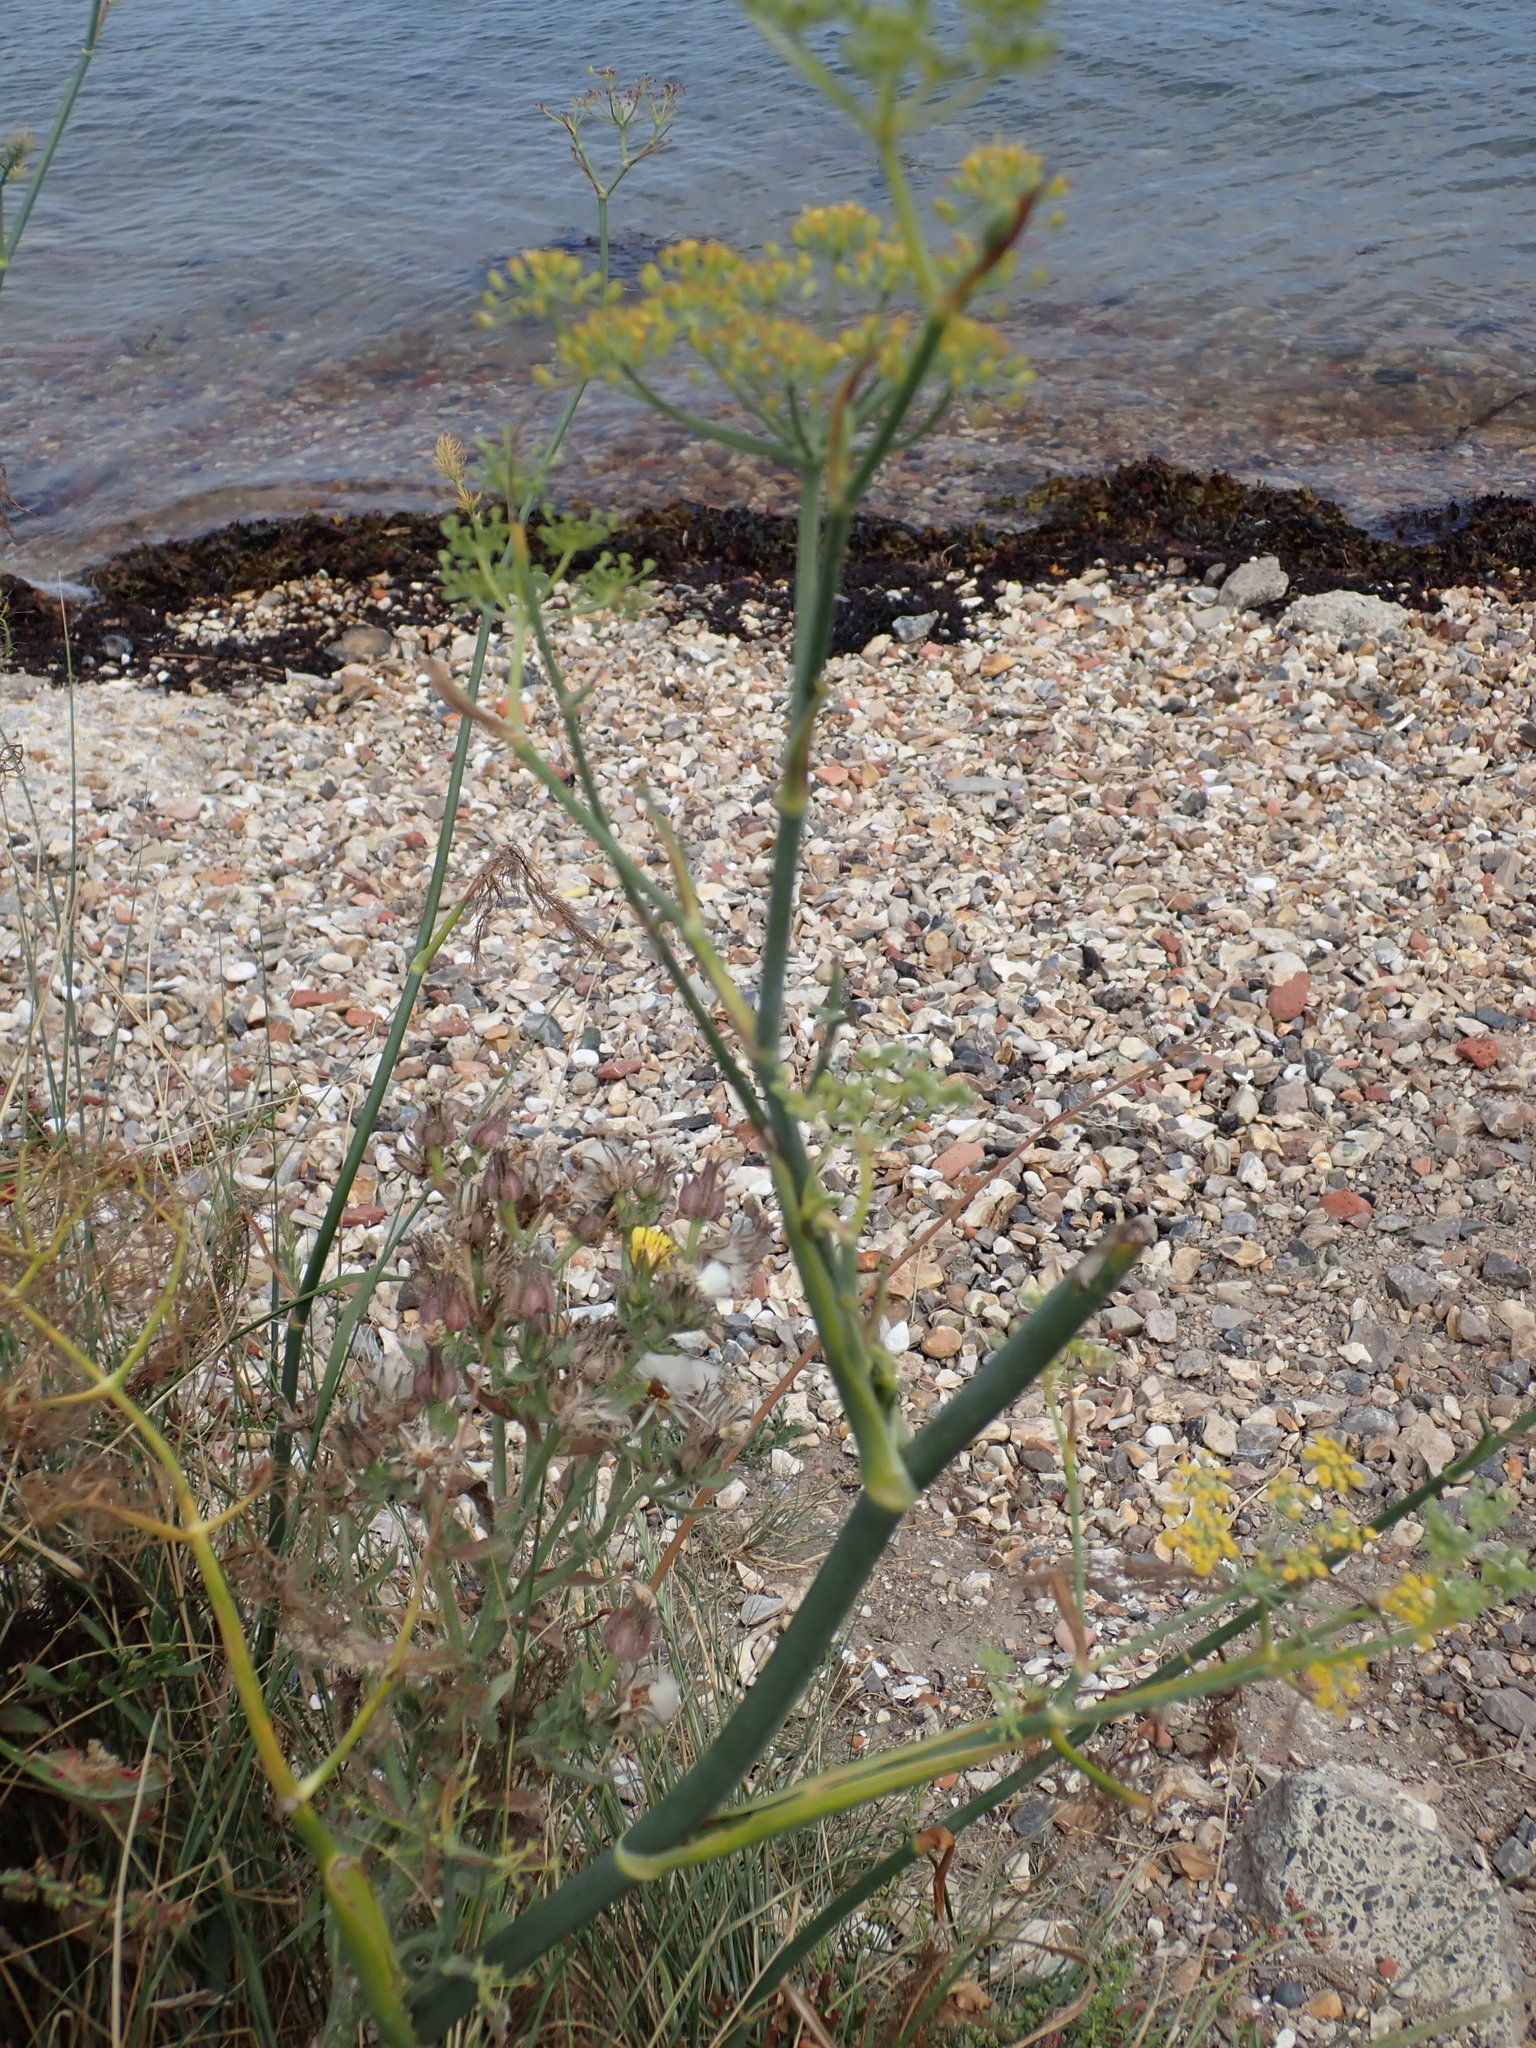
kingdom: Plantae
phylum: Tracheophyta
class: Magnoliopsida
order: Apiales
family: Apiaceae
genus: Foeniculum
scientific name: Foeniculum vulgare
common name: Fennel
